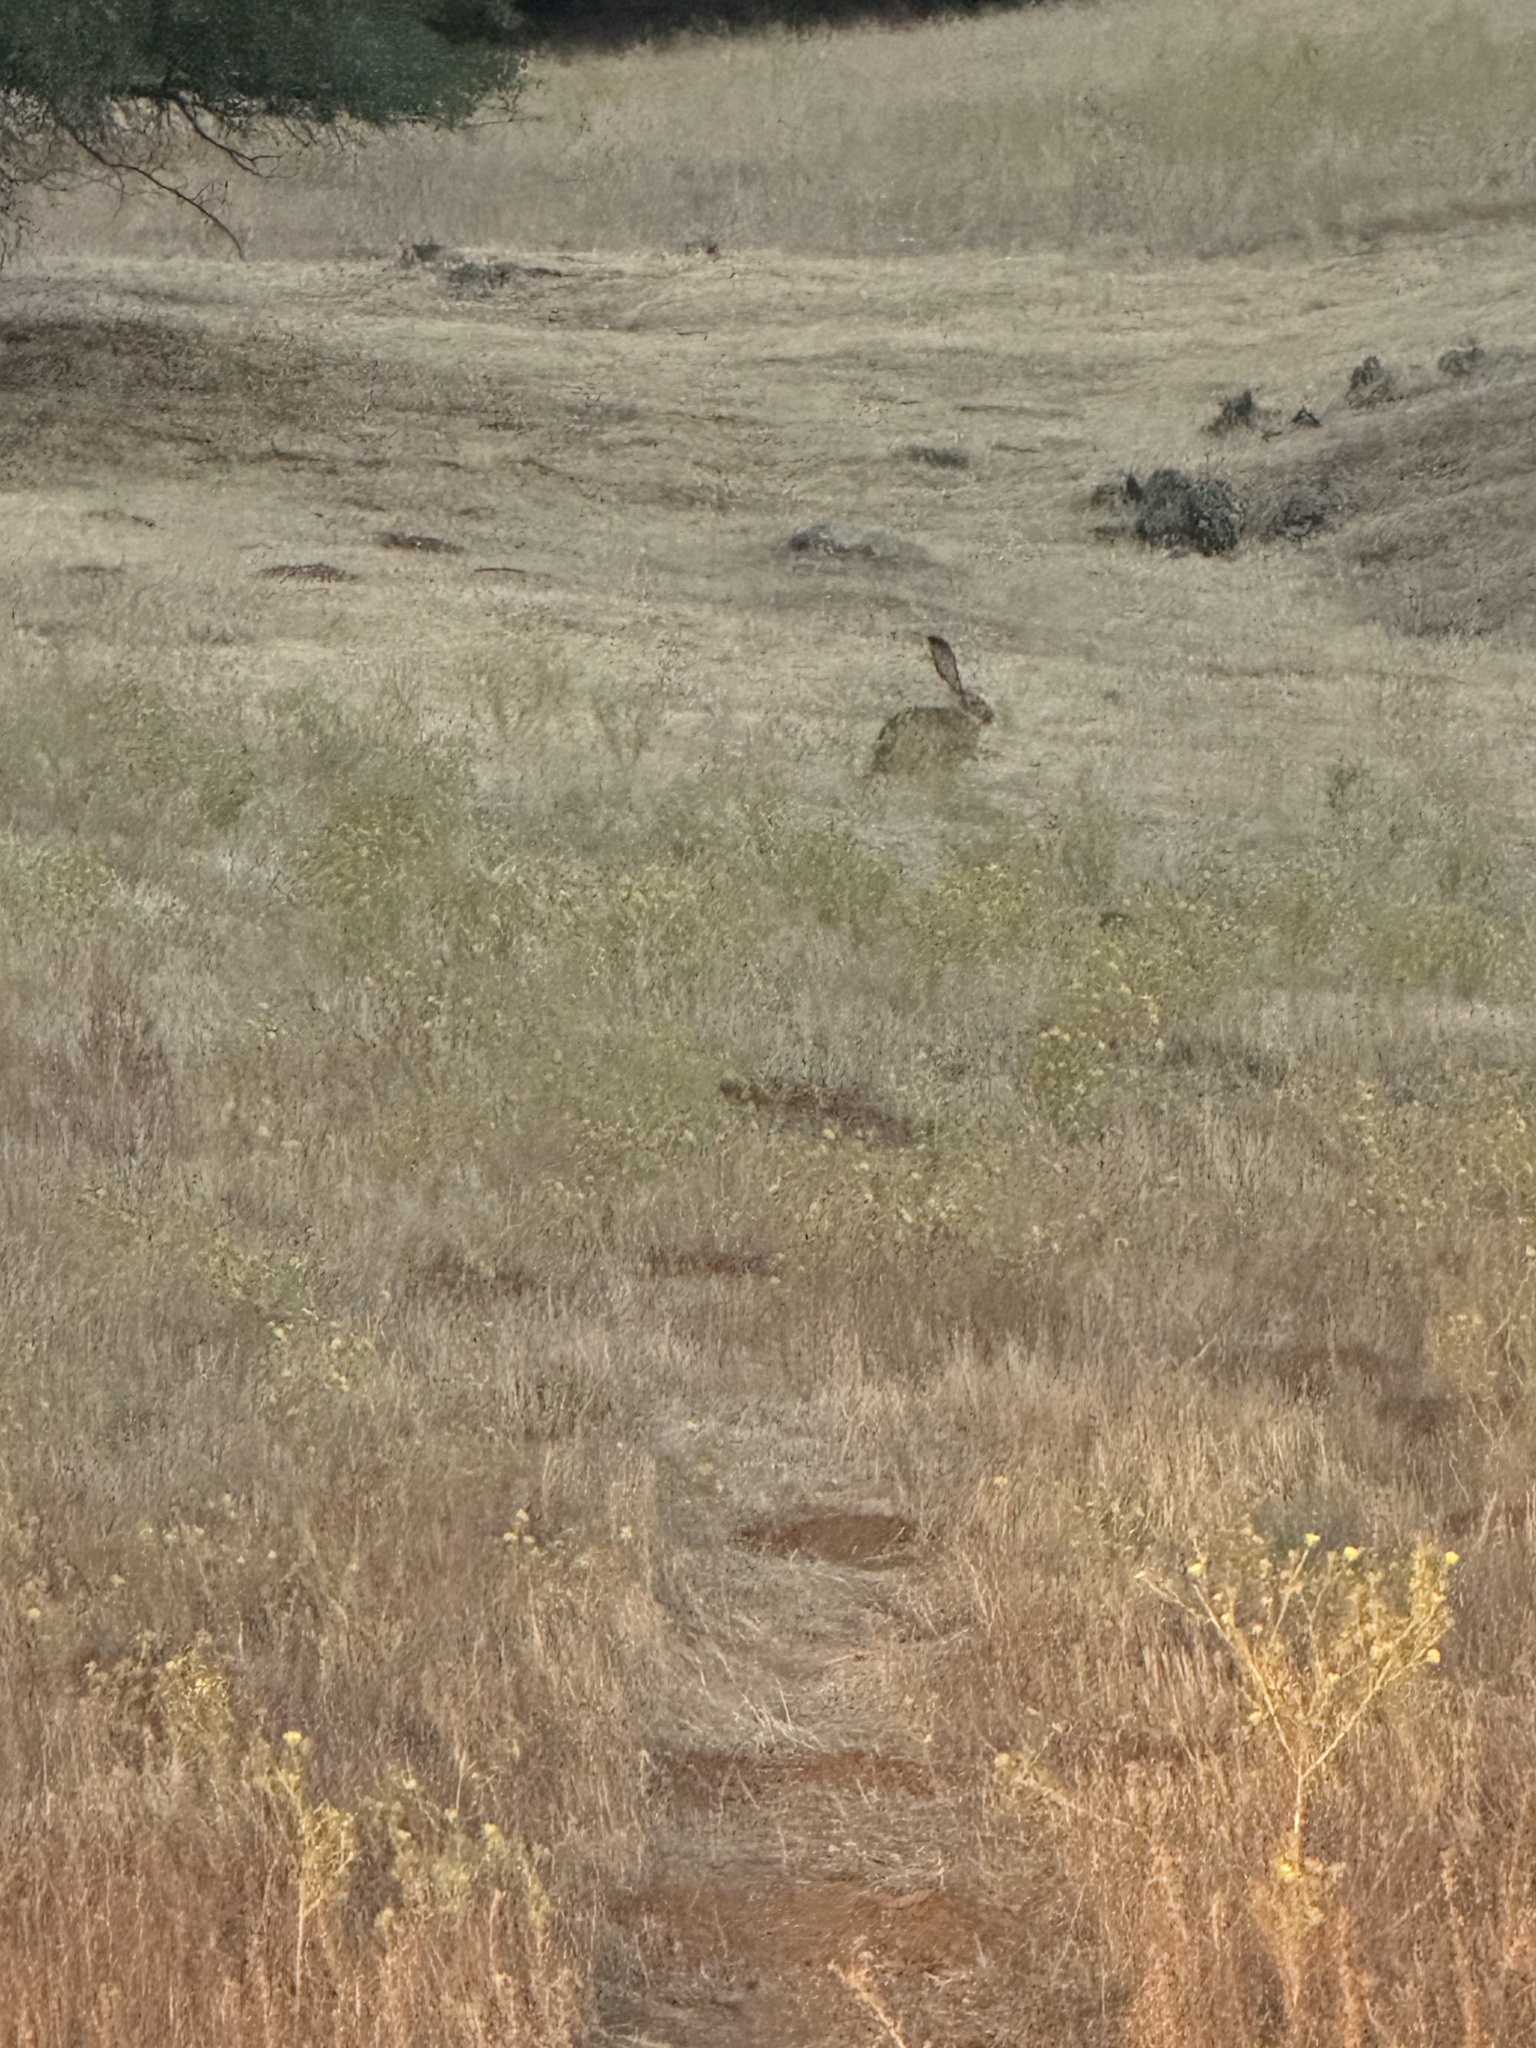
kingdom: Animalia
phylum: Chordata
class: Mammalia
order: Lagomorpha
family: Leporidae
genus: Lepus
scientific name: Lepus californicus
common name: Black-tailed jackrabbit
